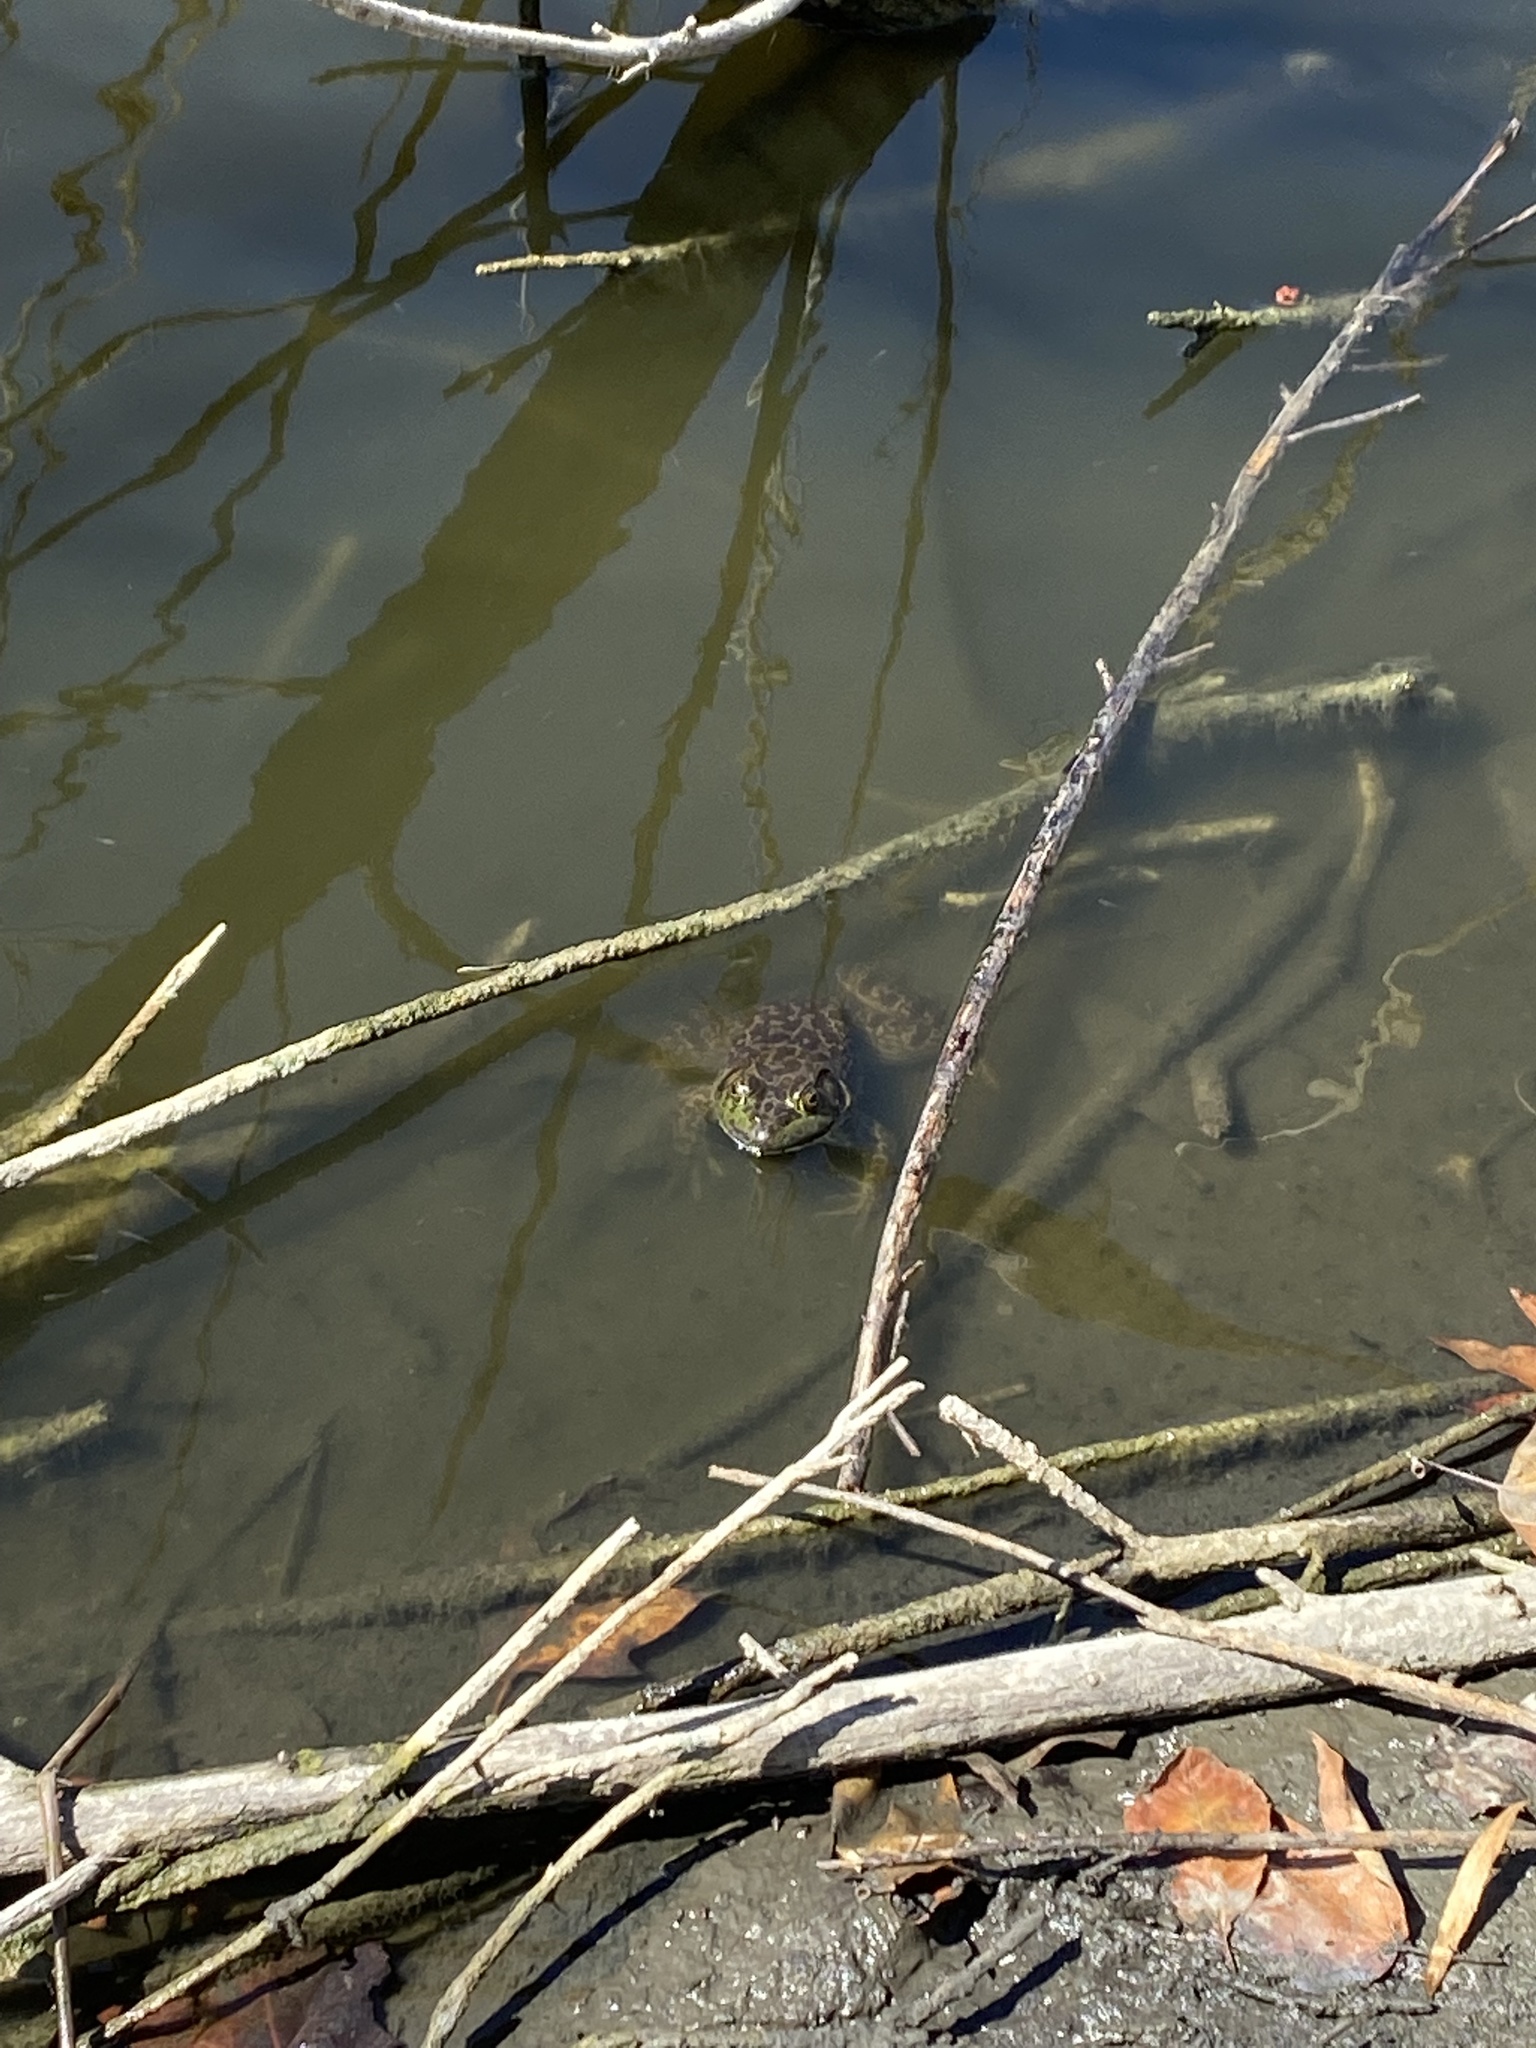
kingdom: Animalia
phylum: Chordata
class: Amphibia
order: Anura
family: Ranidae
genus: Lithobates
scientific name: Lithobates catesbeianus
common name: American bullfrog
